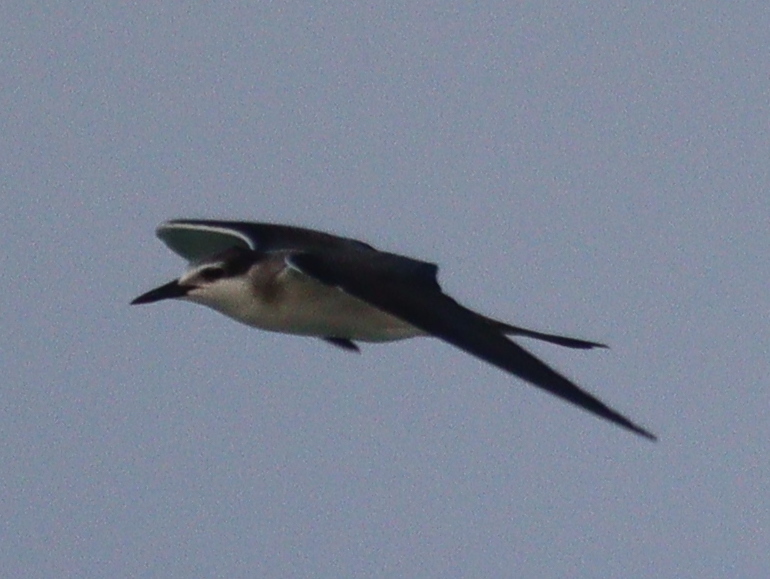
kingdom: Animalia
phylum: Chordata
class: Aves
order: Charadriiformes
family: Laridae
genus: Onychoprion
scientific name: Onychoprion anaethetus
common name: Bridled tern
